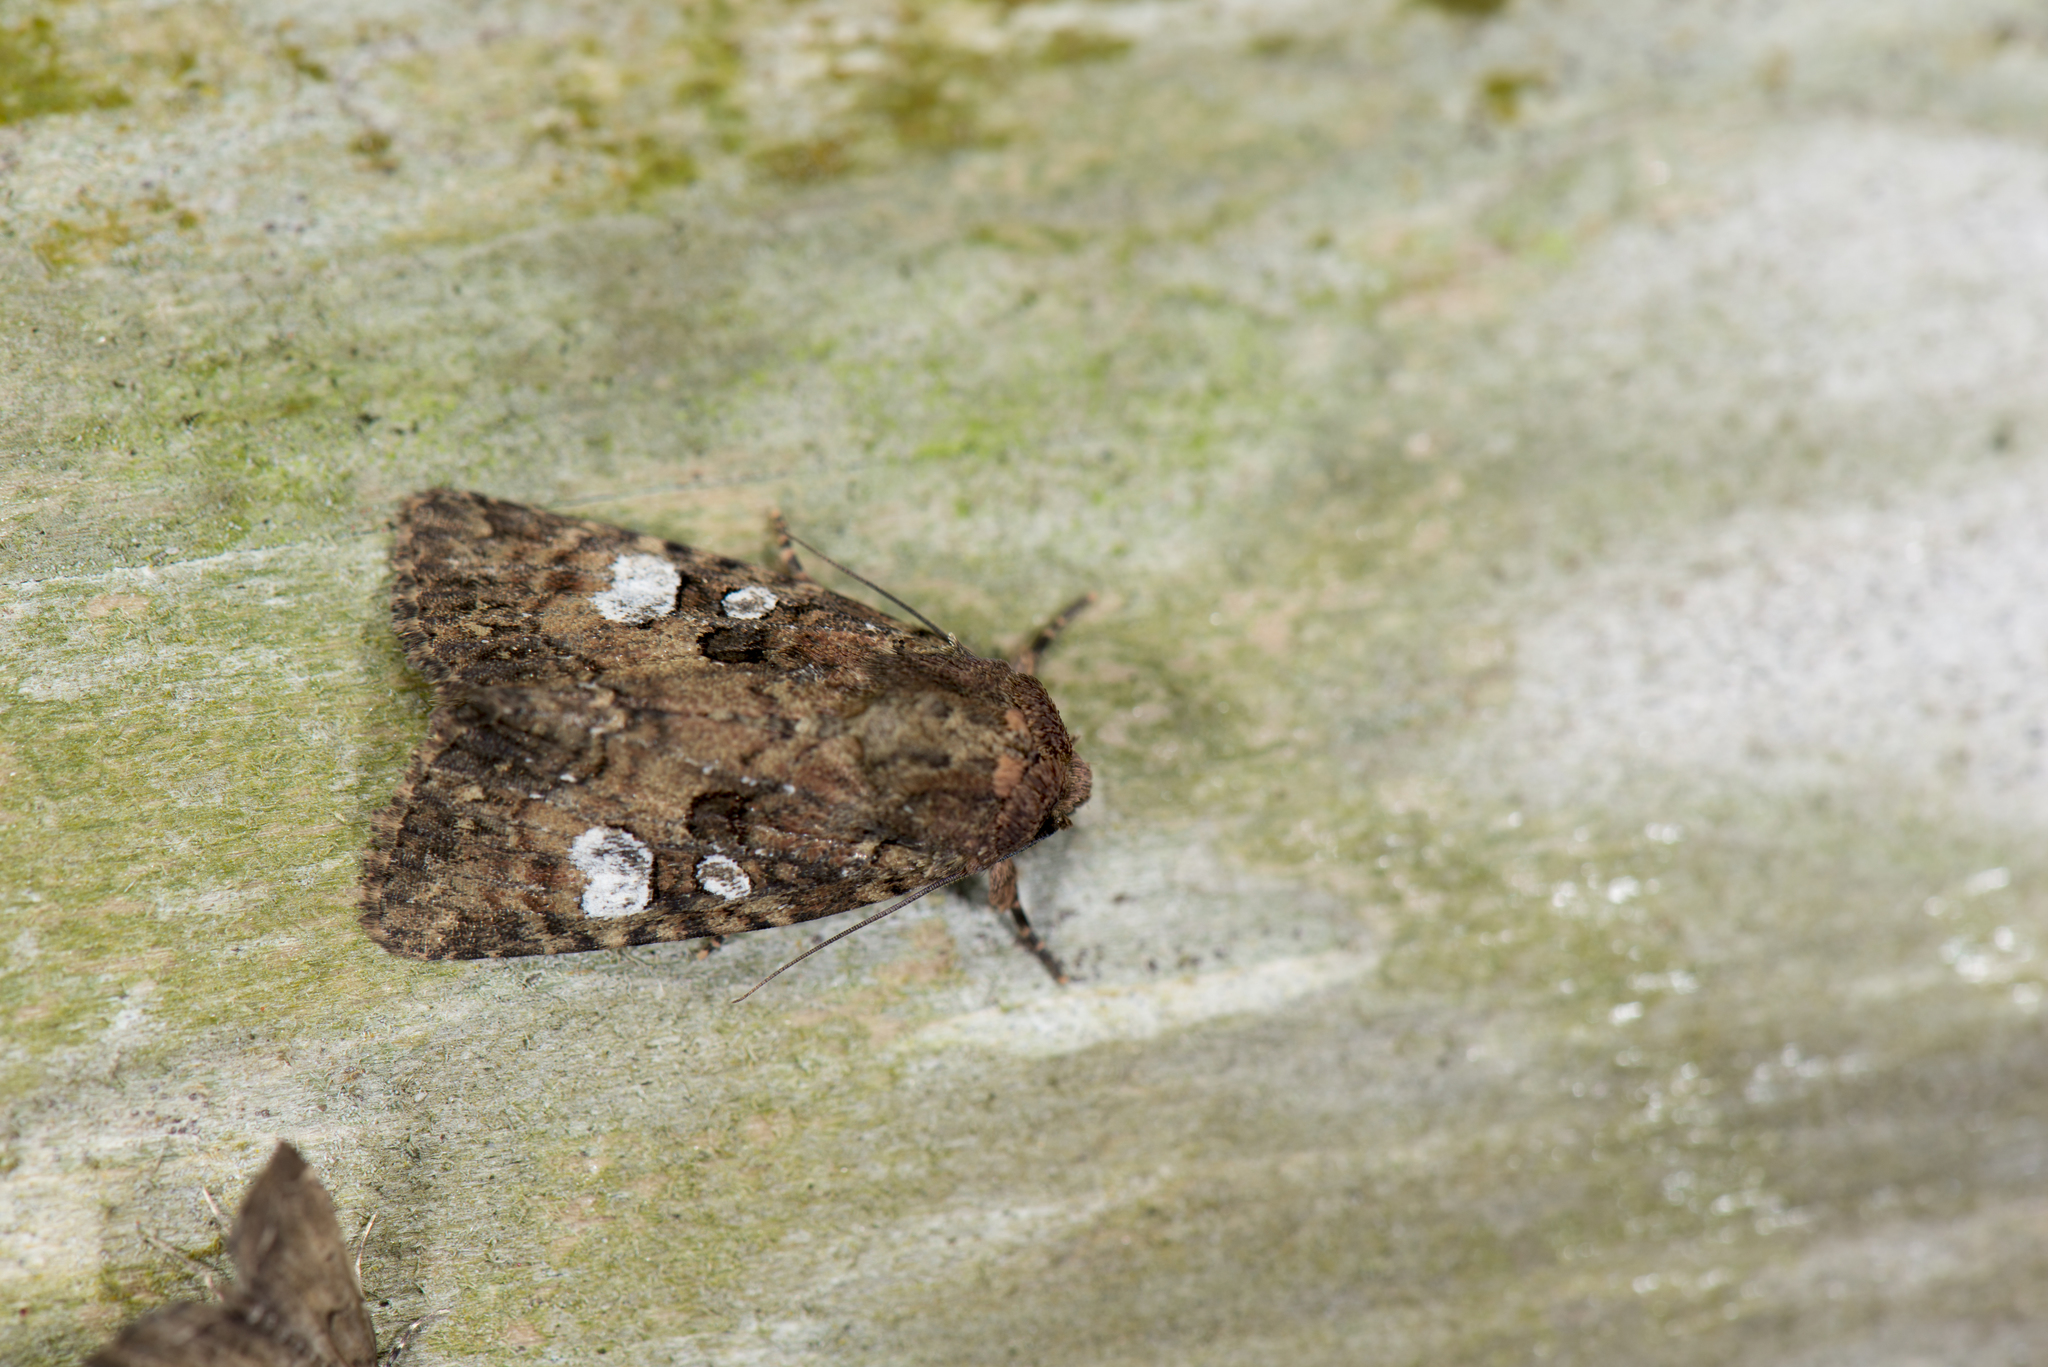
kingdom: Animalia
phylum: Arthropoda
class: Insecta
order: Lepidoptera
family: Noctuidae
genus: Feliniopsis
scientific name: Feliniopsis indistans
